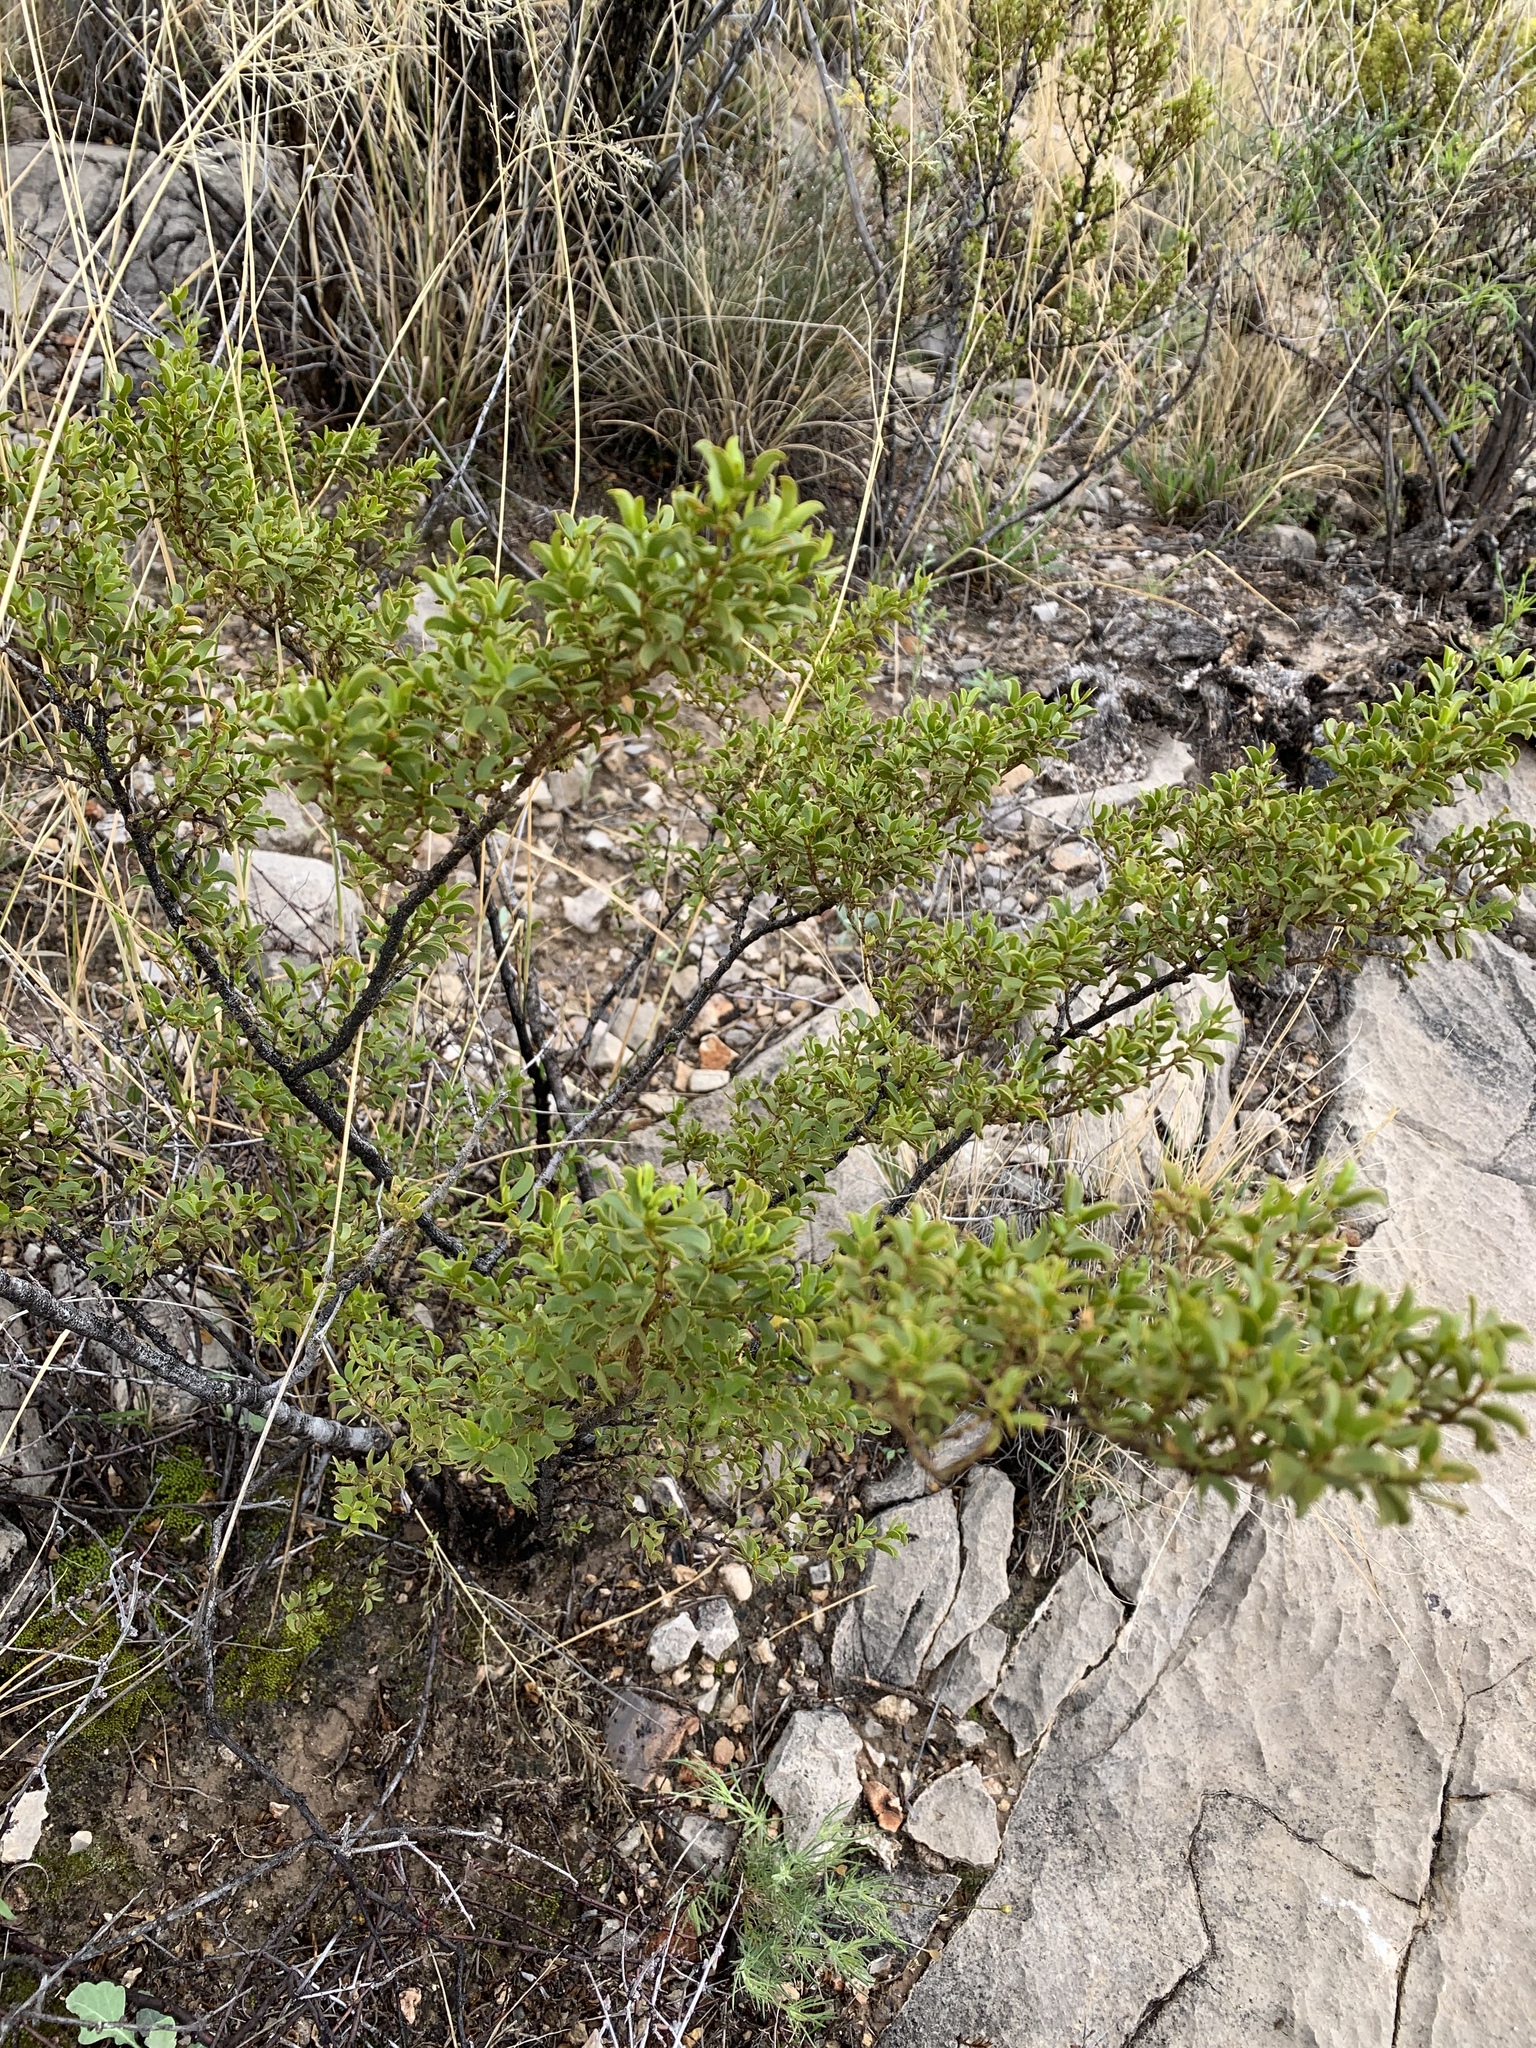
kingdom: Plantae
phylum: Tracheophyta
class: Magnoliopsida
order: Zygophyllales
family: Zygophyllaceae
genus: Larrea
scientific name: Larrea tridentata
